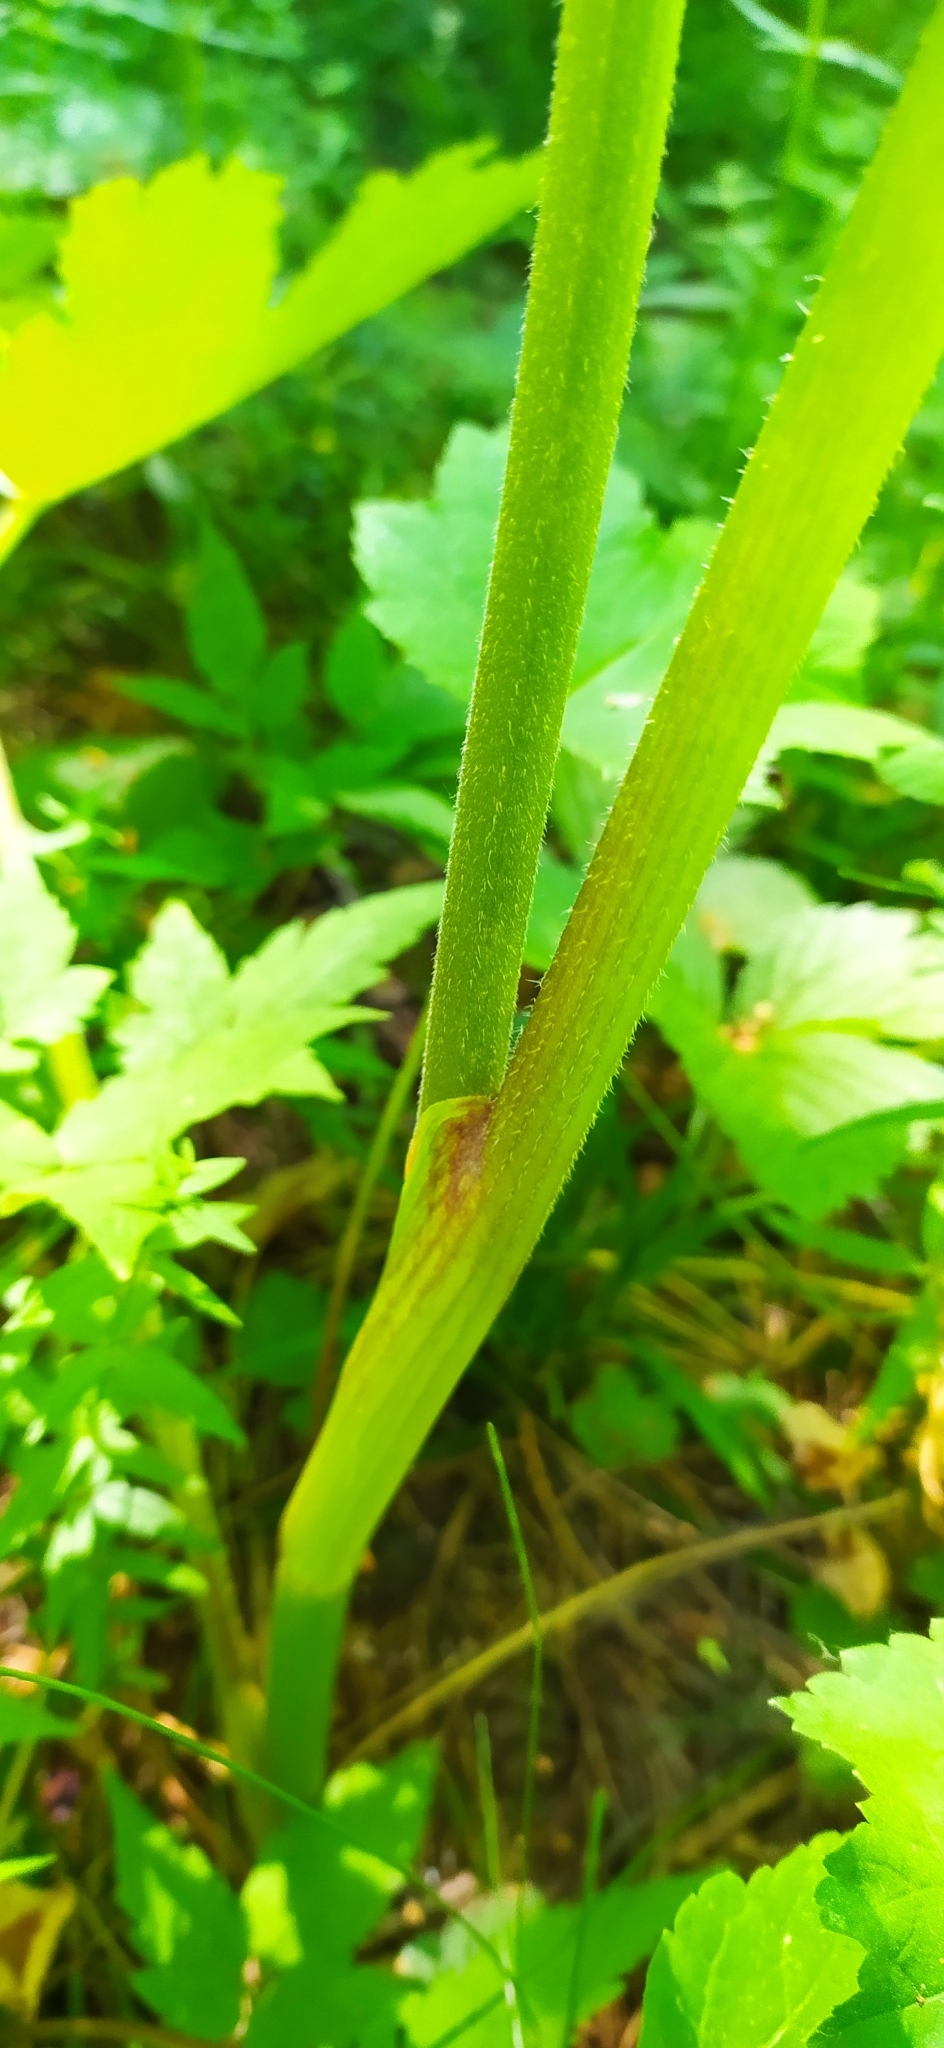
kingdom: Plantae
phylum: Tracheophyta
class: Magnoliopsida
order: Apiales
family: Apiaceae
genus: Heracleum
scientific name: Heracleum sphondylium
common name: Hogweed
